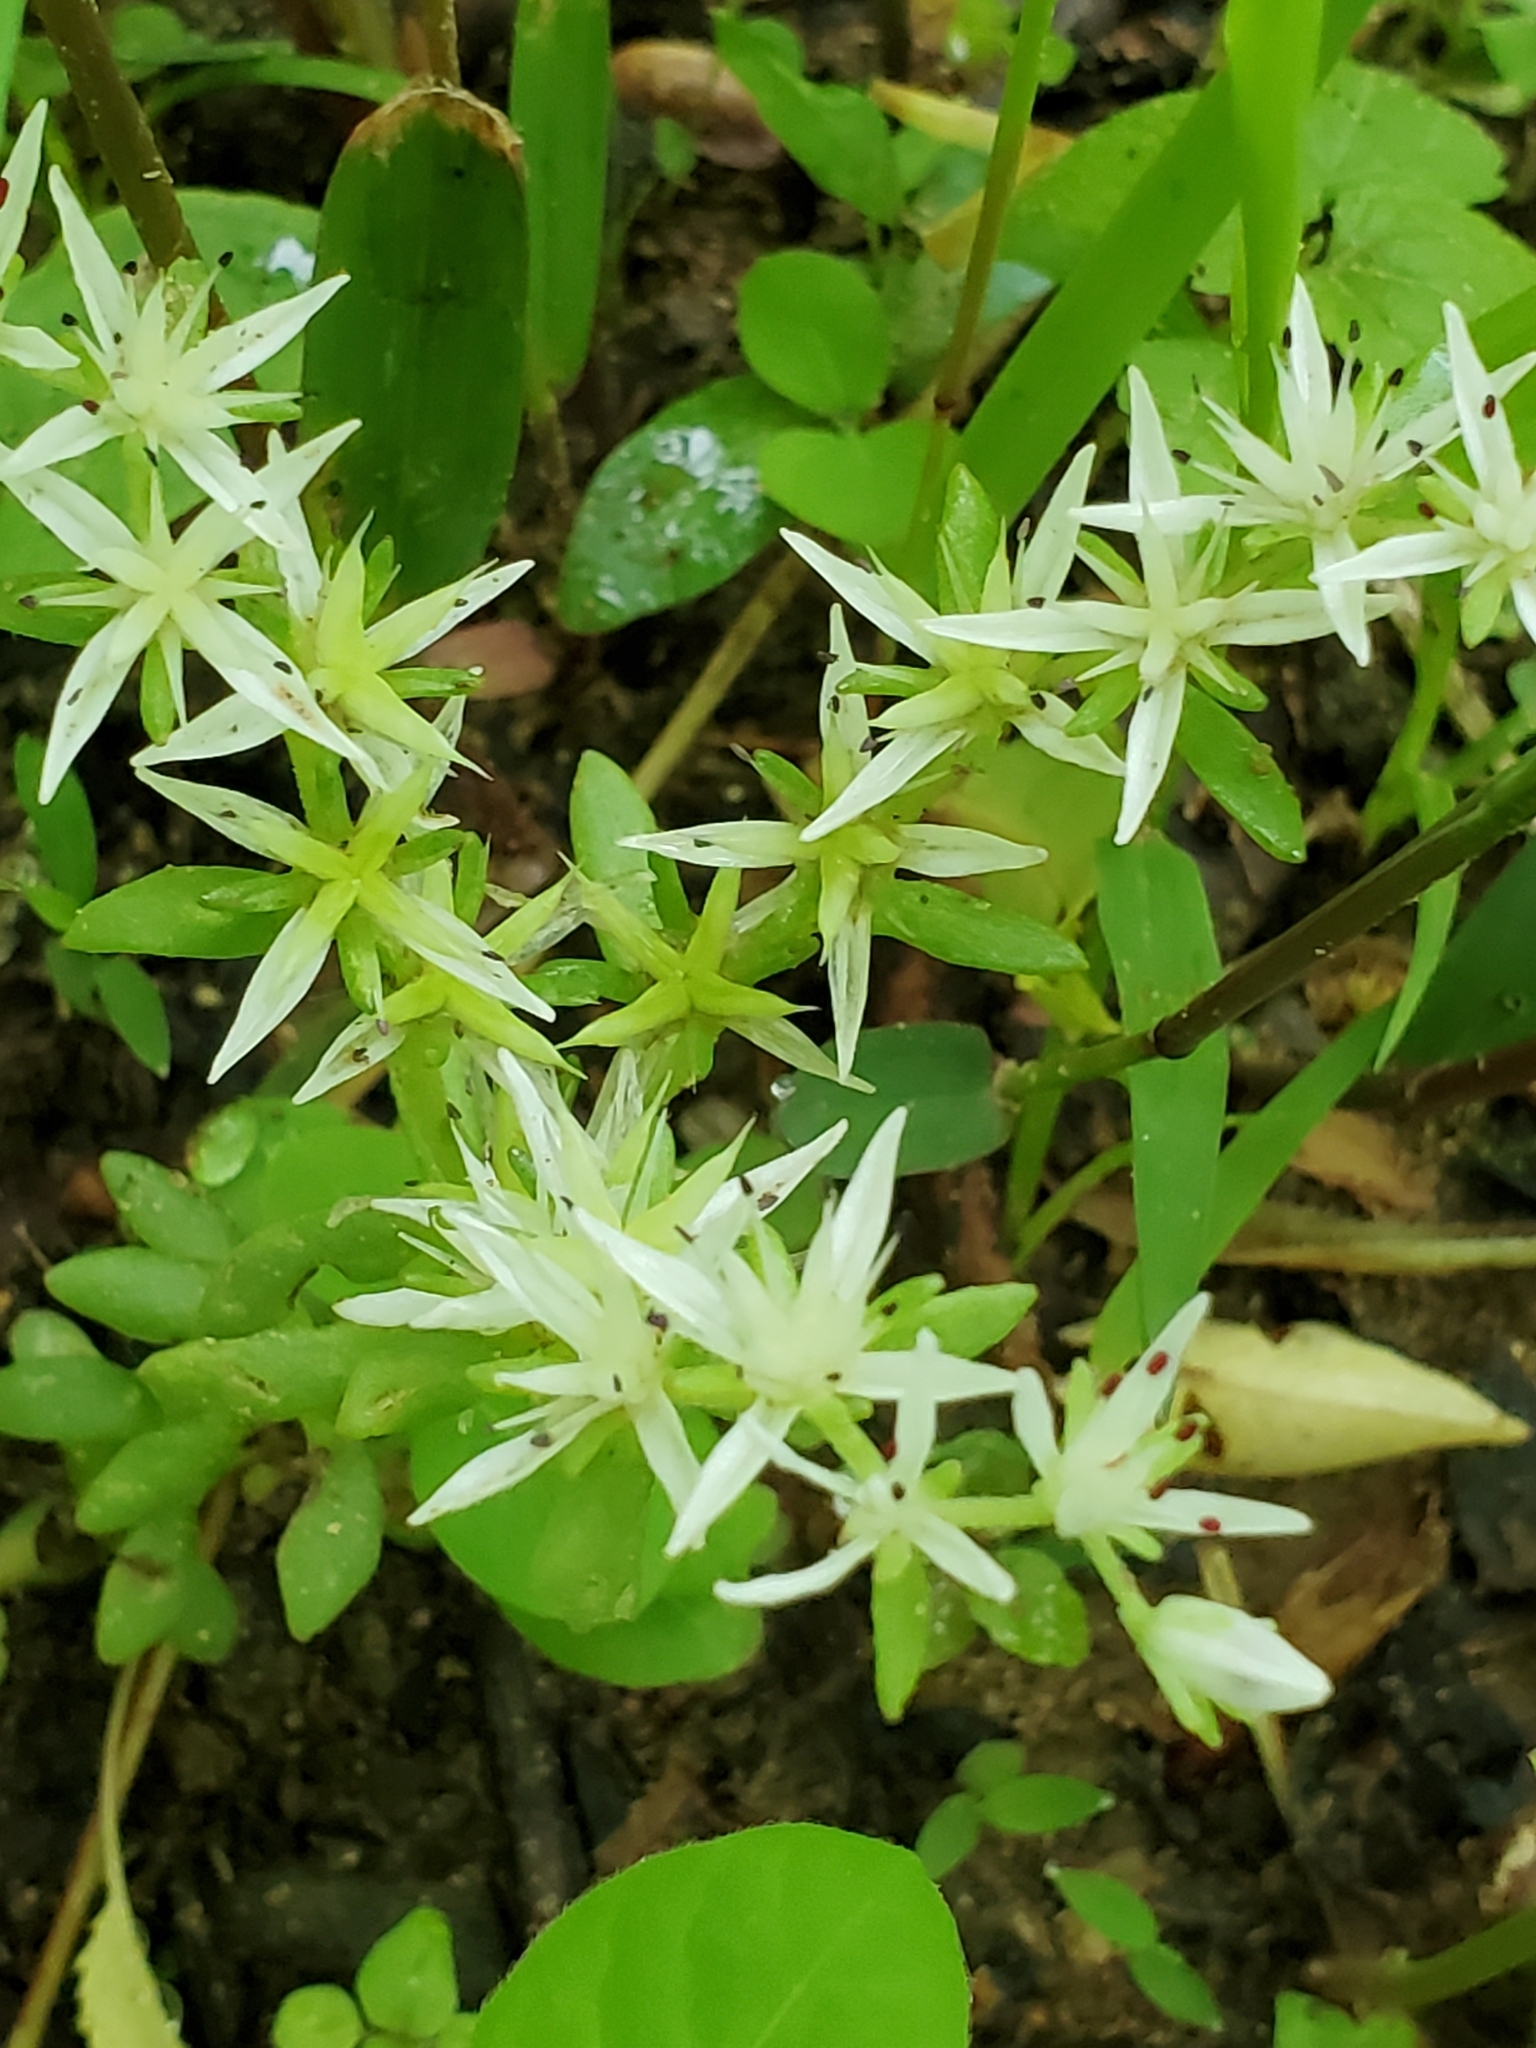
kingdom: Plantae
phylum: Tracheophyta
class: Magnoliopsida
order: Saxifragales
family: Crassulaceae
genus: Sedum
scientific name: Sedum ternatum
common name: Wild stonecrop
